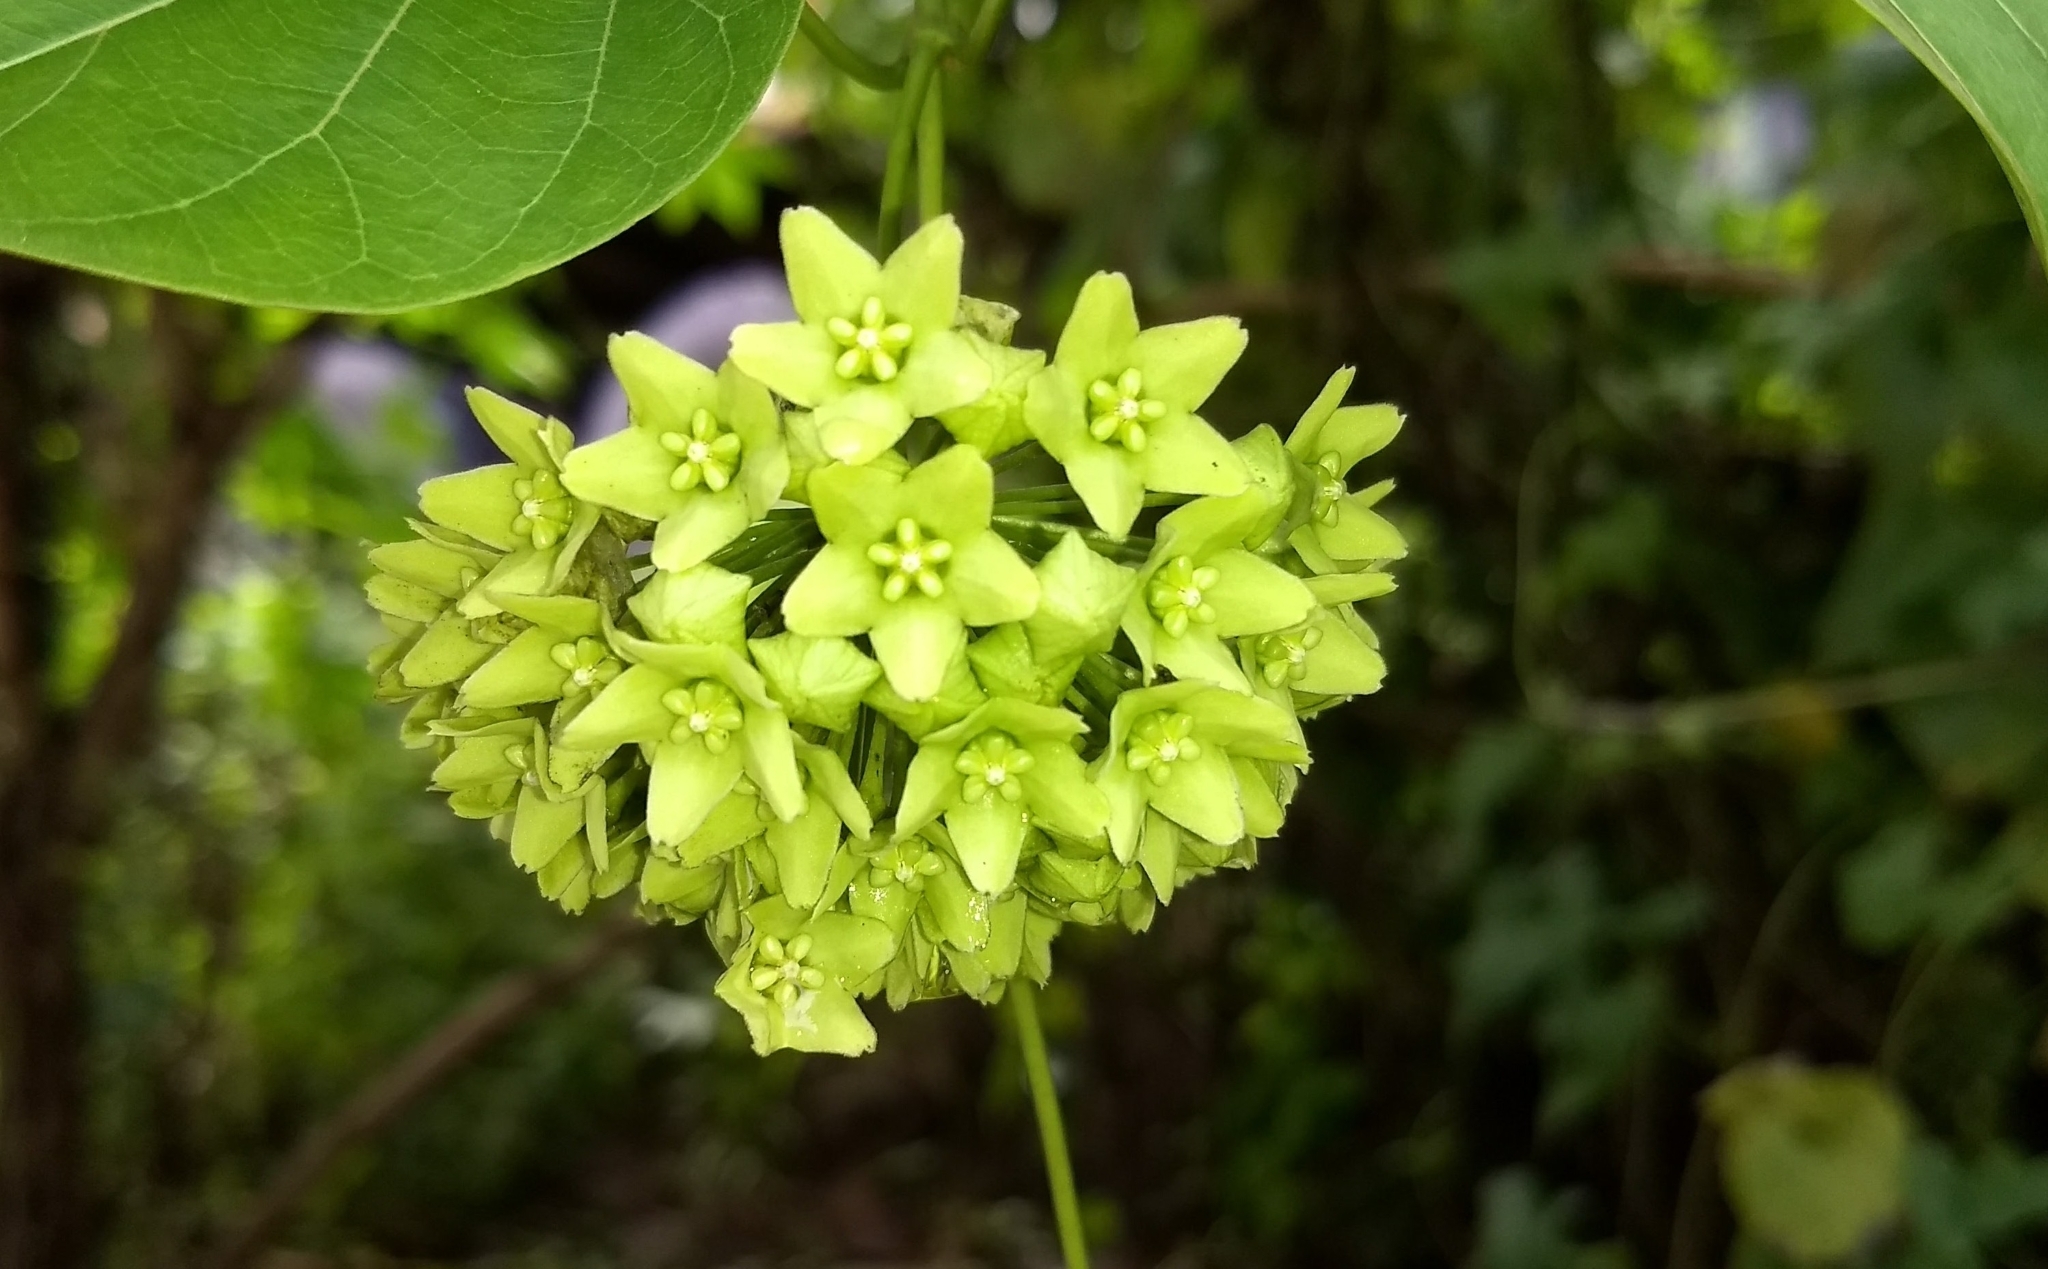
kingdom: Plantae
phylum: Tracheophyta
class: Magnoliopsida
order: Gentianales
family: Apocynaceae
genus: Stephanotis
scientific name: Stephanotis volubilis
